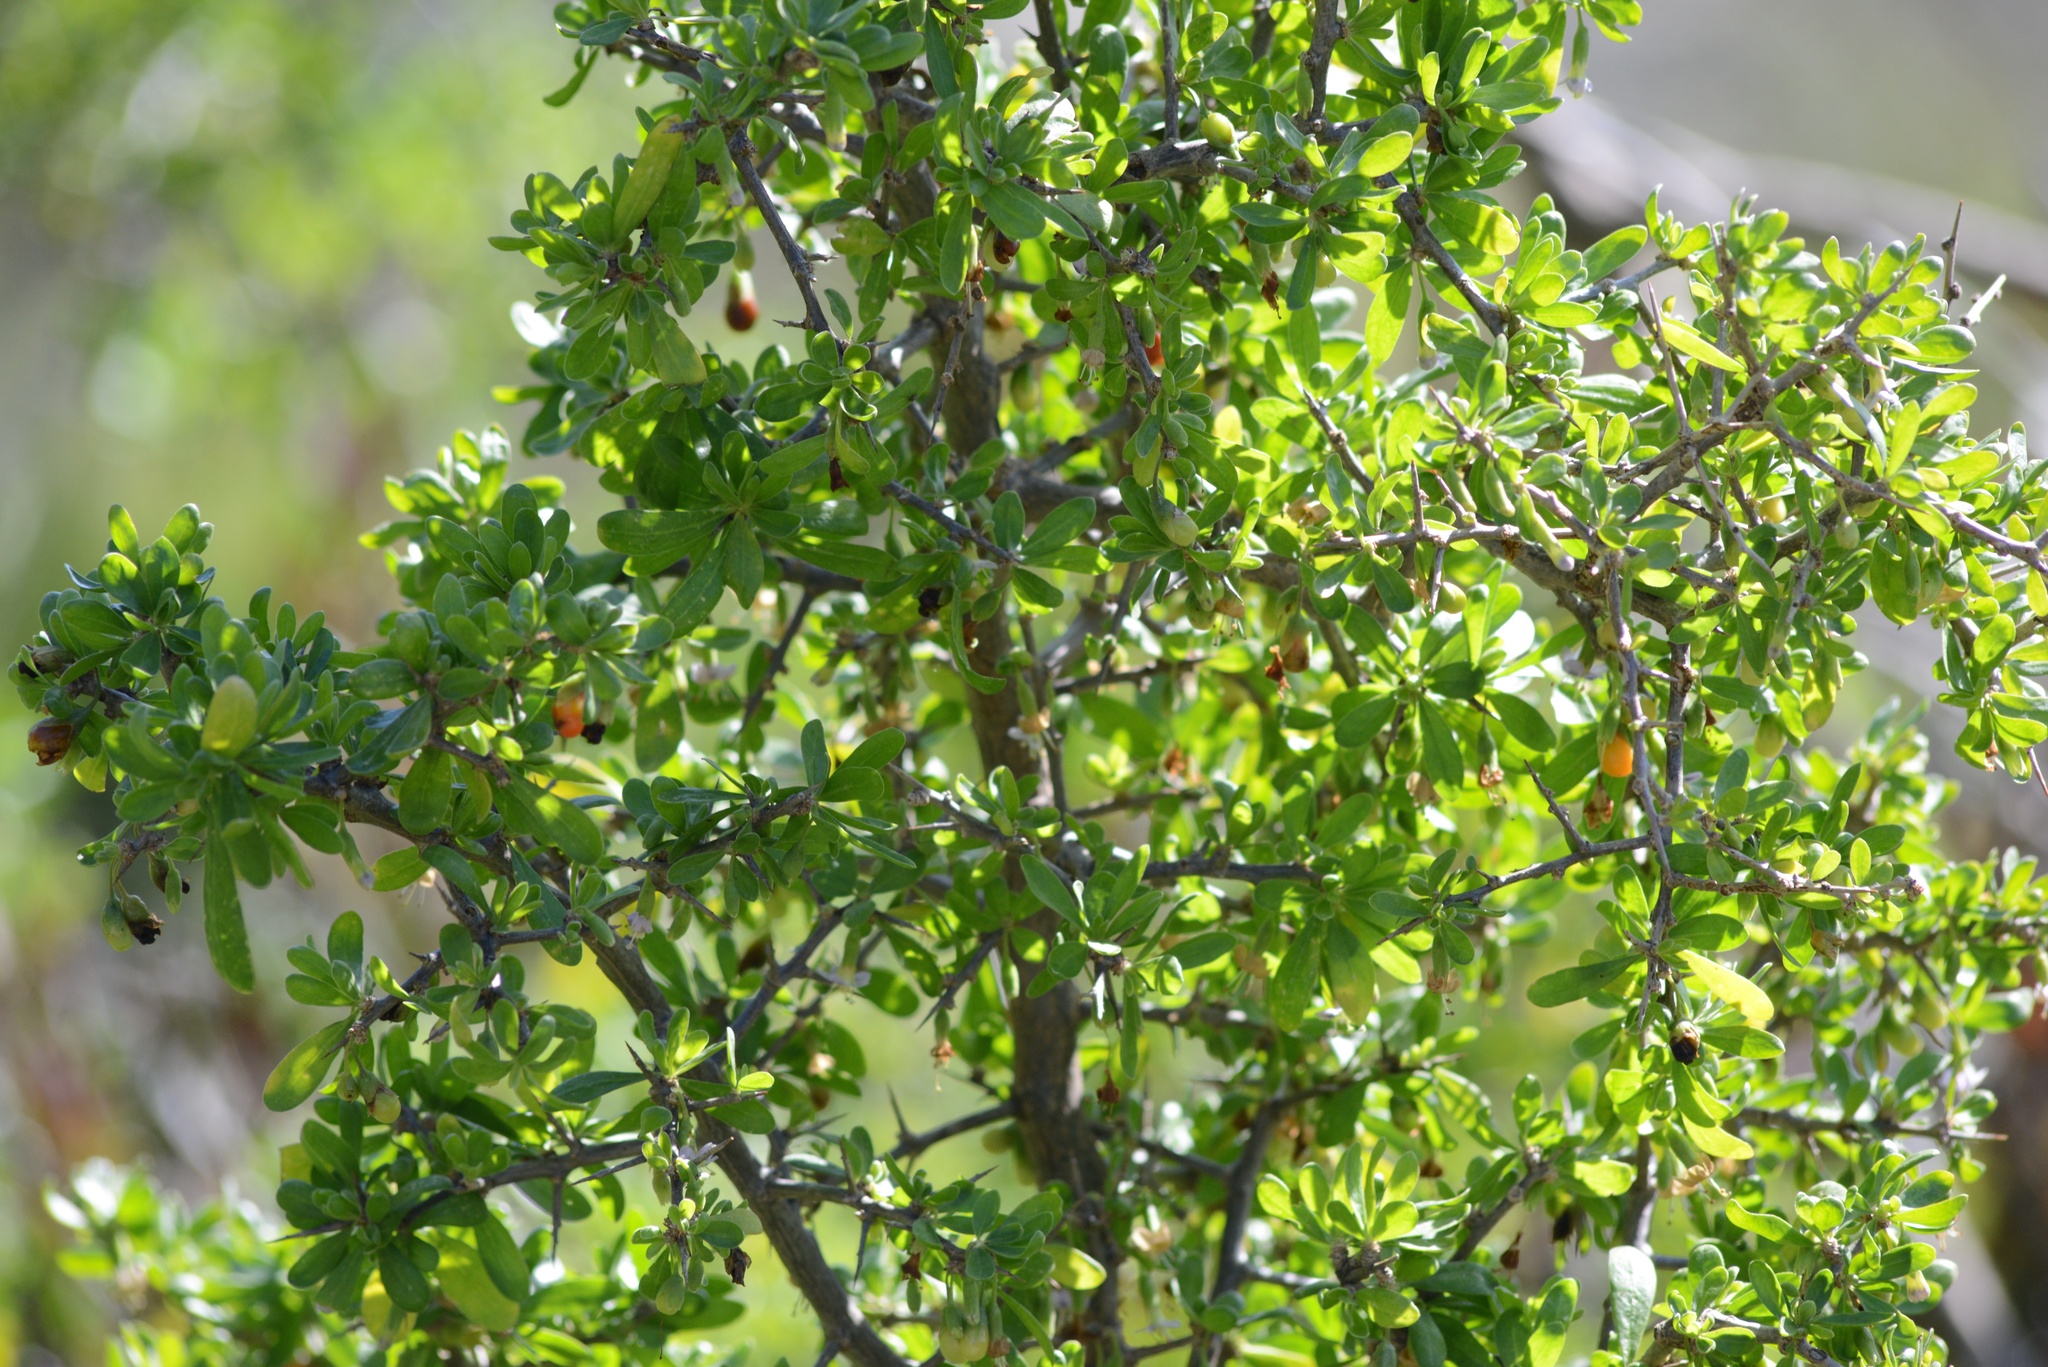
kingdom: Plantae
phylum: Tracheophyta
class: Magnoliopsida
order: Solanales
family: Solanaceae
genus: Lycium
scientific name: Lycium ferocissimum
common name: African boxthorn
